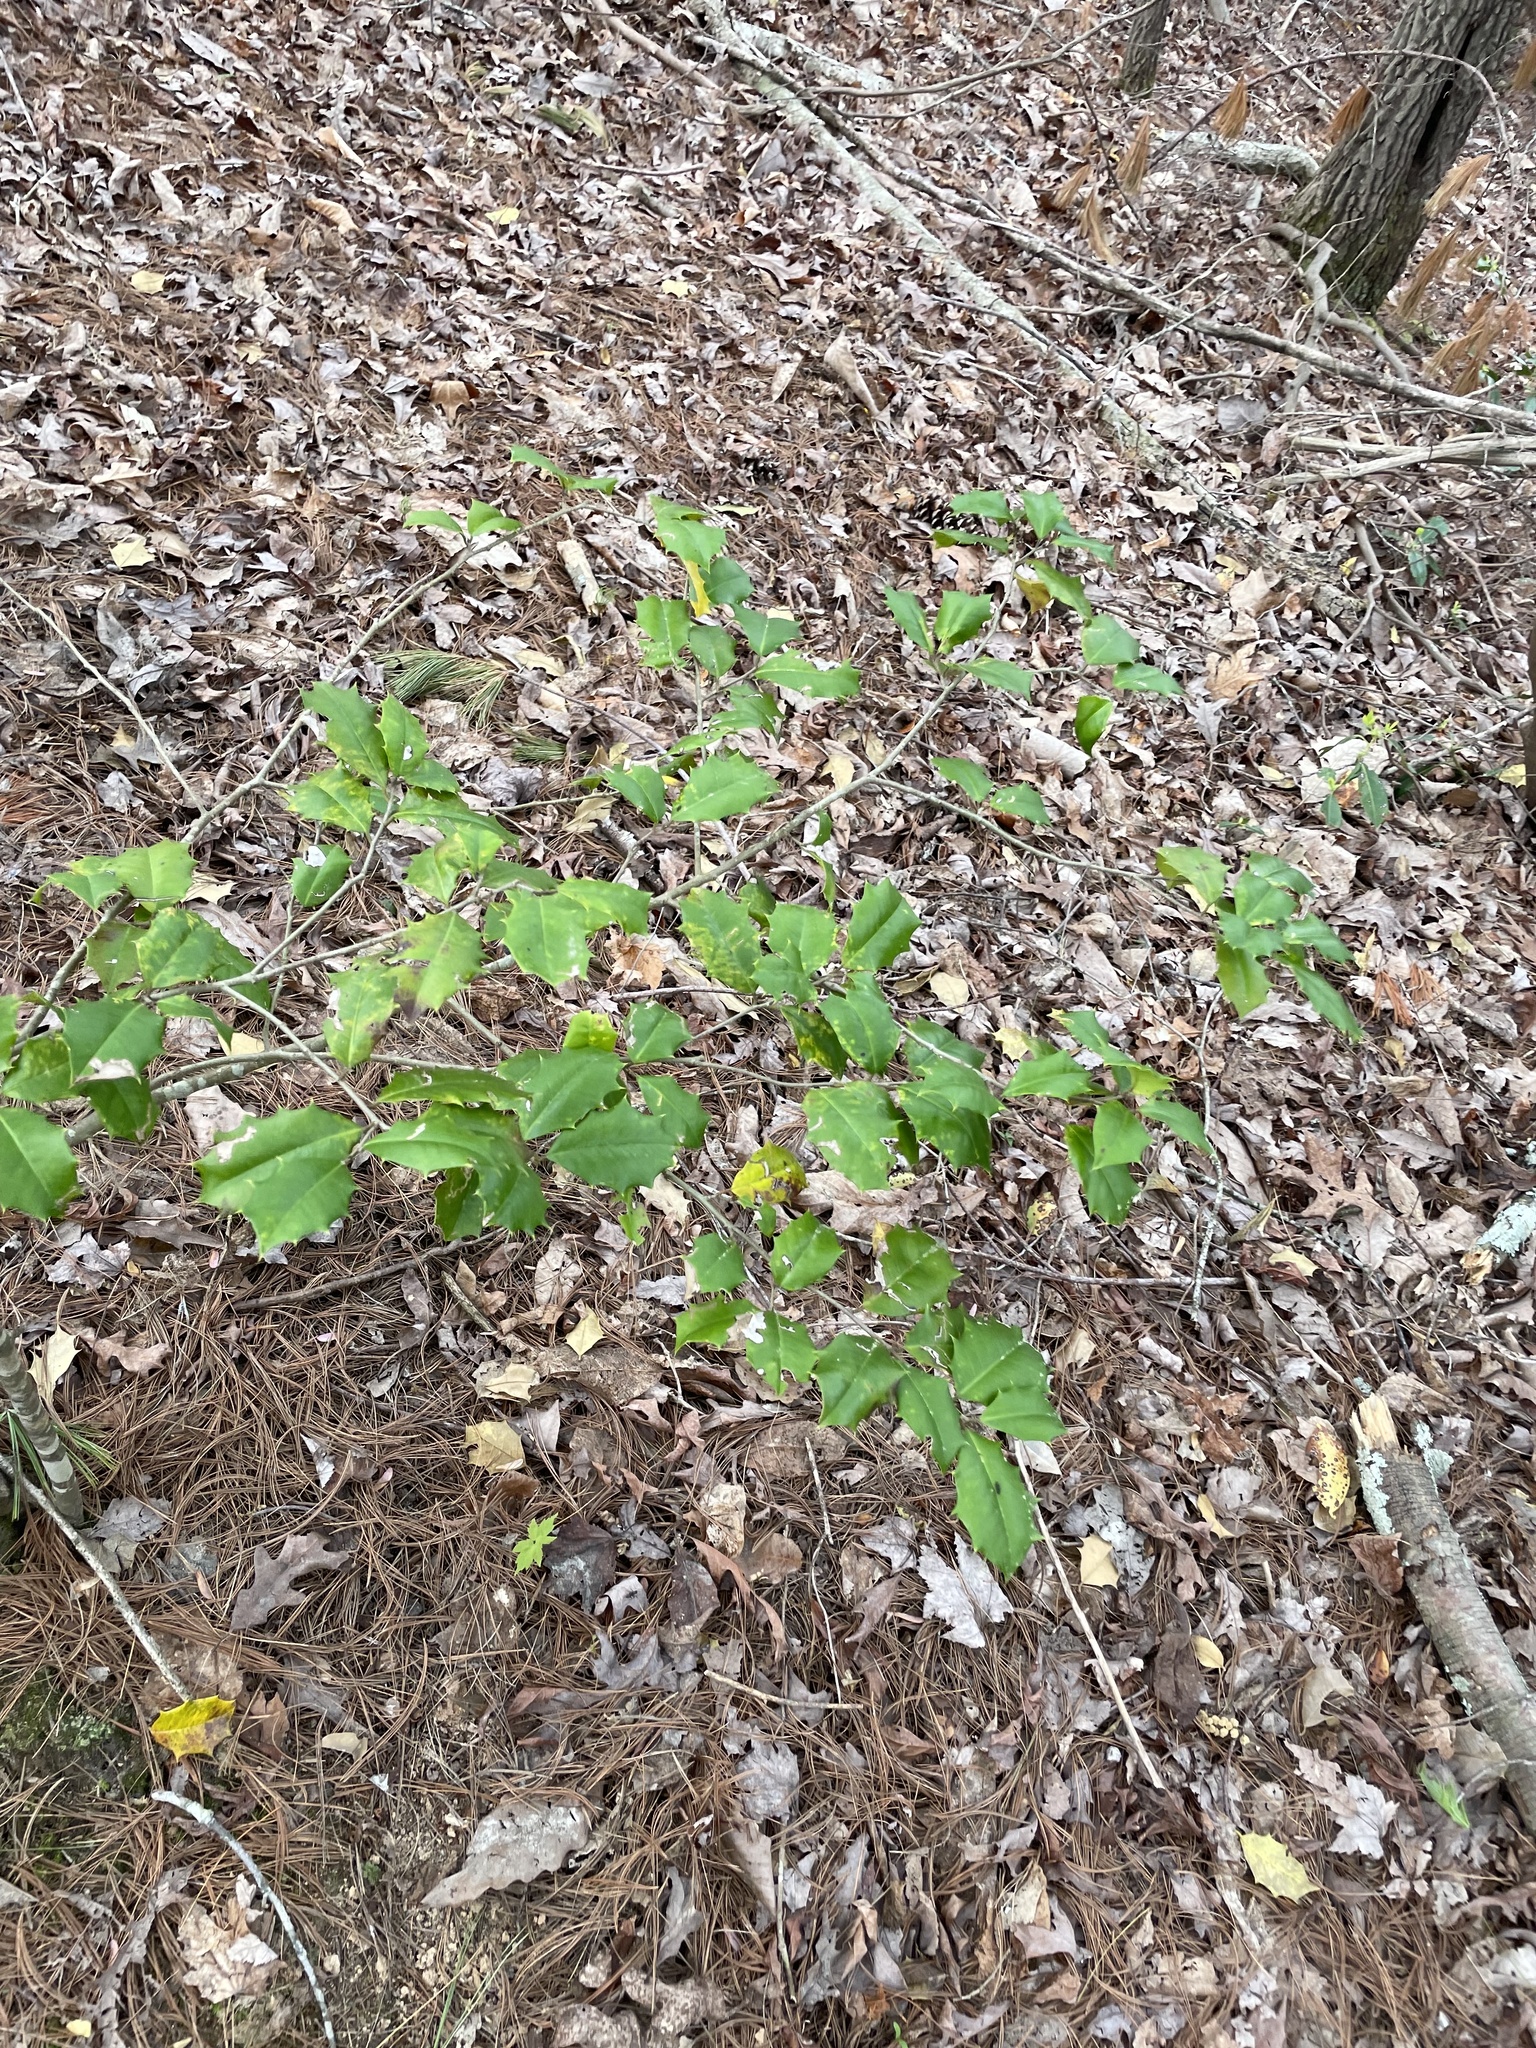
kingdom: Plantae
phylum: Tracheophyta
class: Magnoliopsida
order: Aquifoliales
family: Aquifoliaceae
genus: Ilex
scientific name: Ilex opaca
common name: American holly
